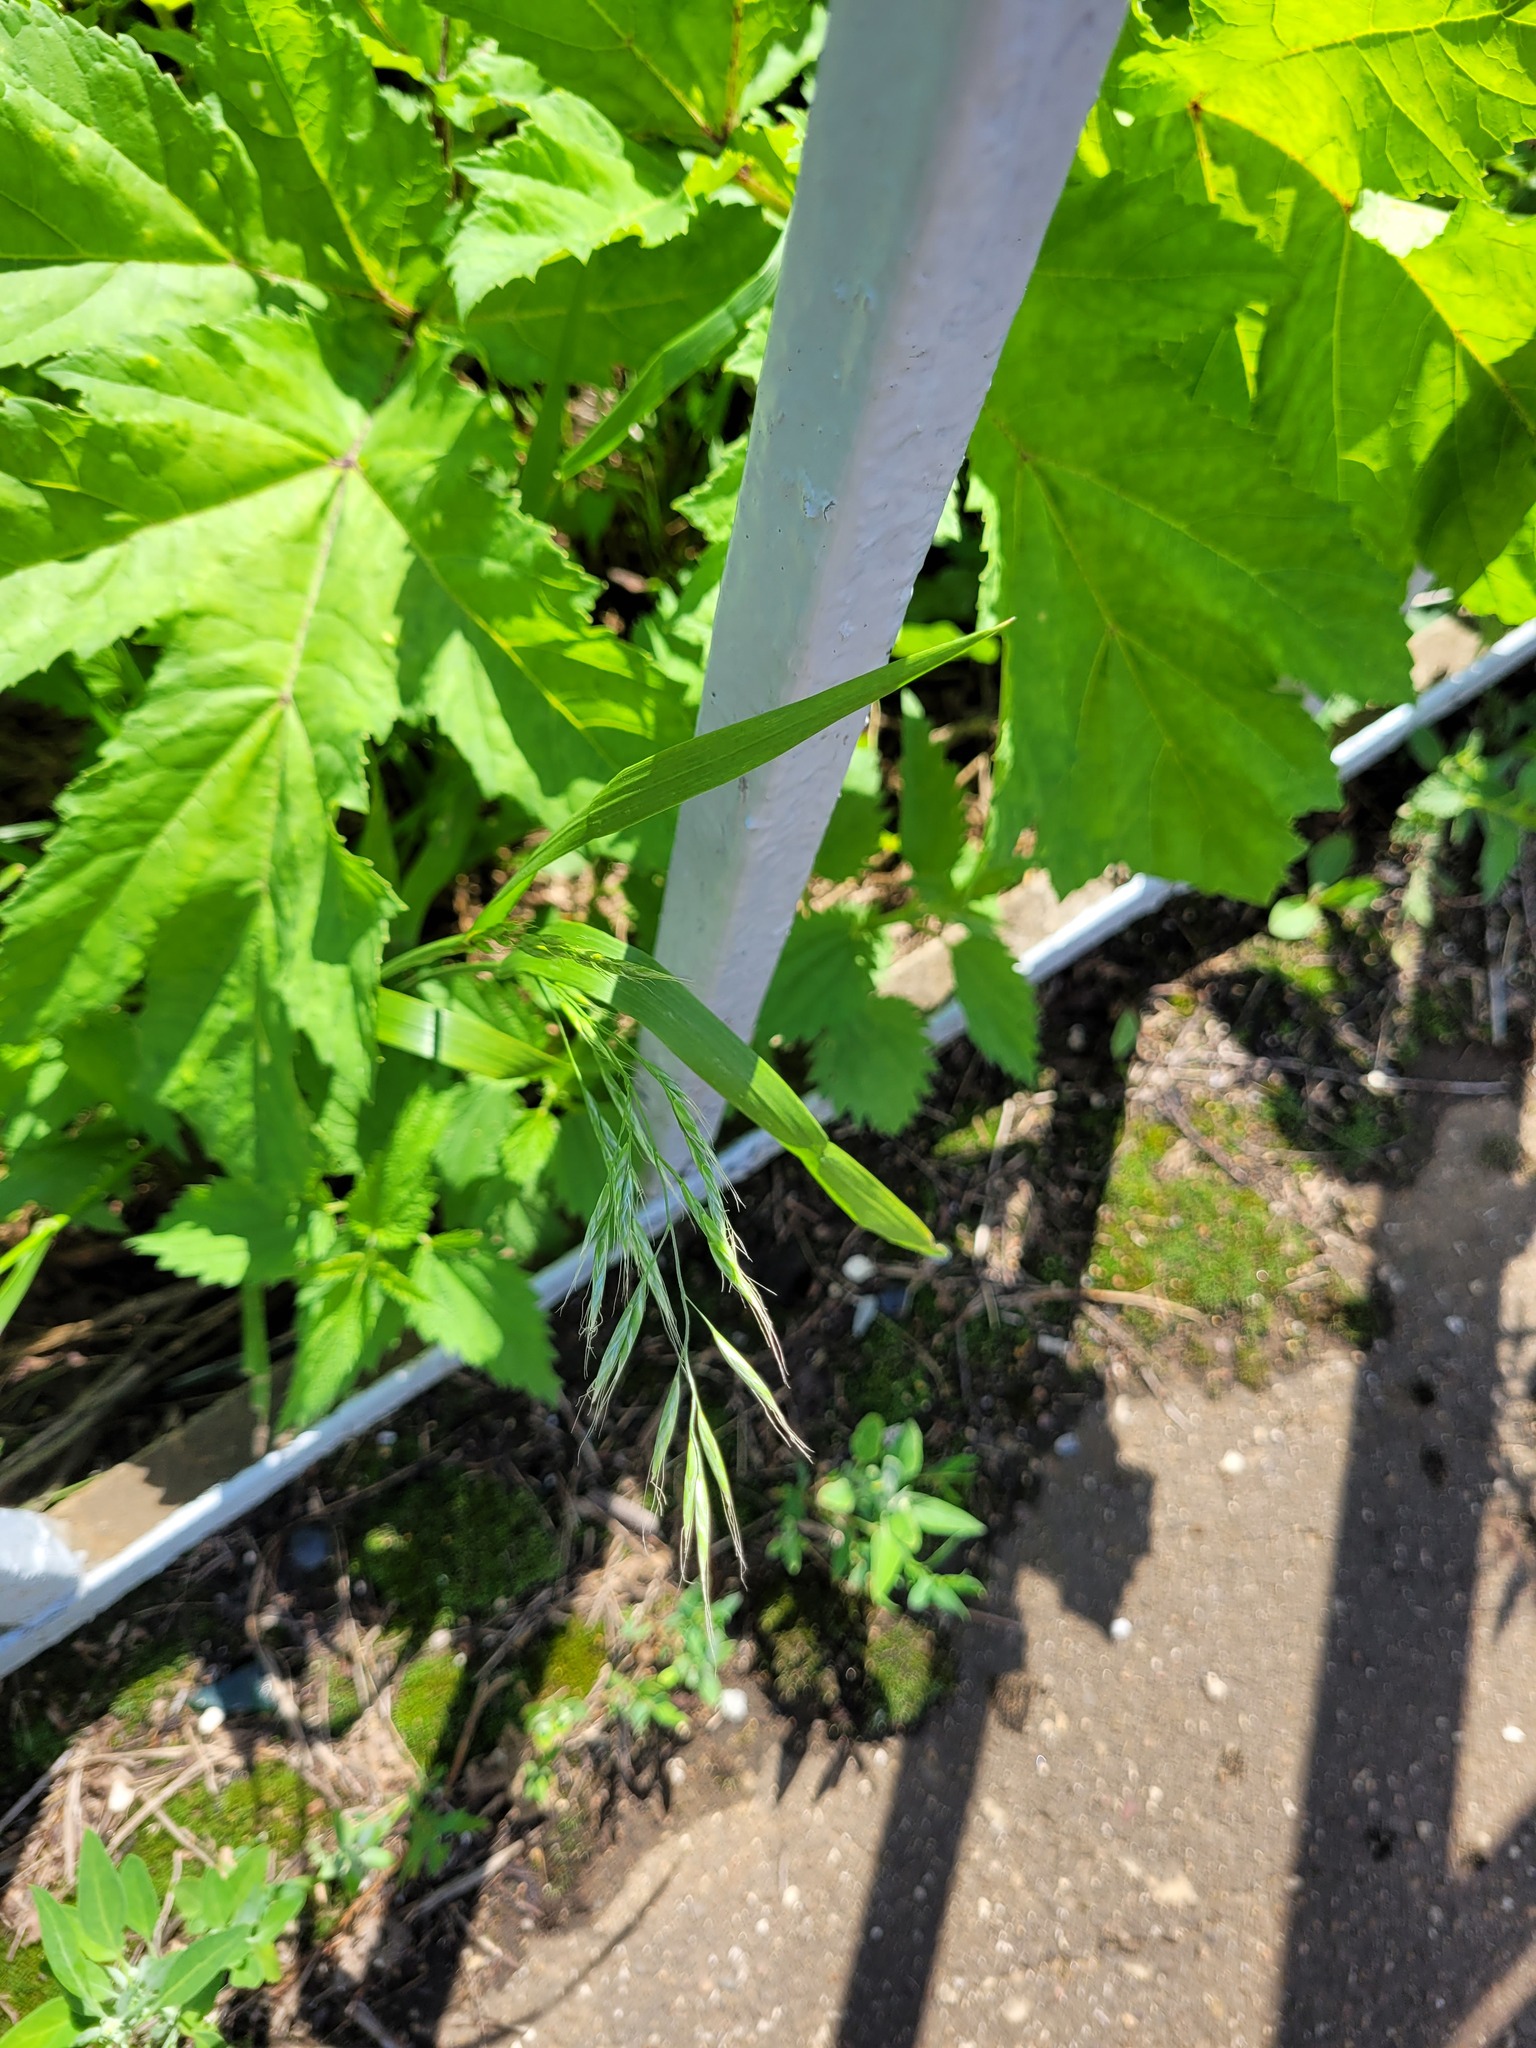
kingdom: Plantae
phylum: Tracheophyta
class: Liliopsida
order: Poales
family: Poaceae
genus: Lolium
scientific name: Lolium giganteum
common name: Giant fescue
